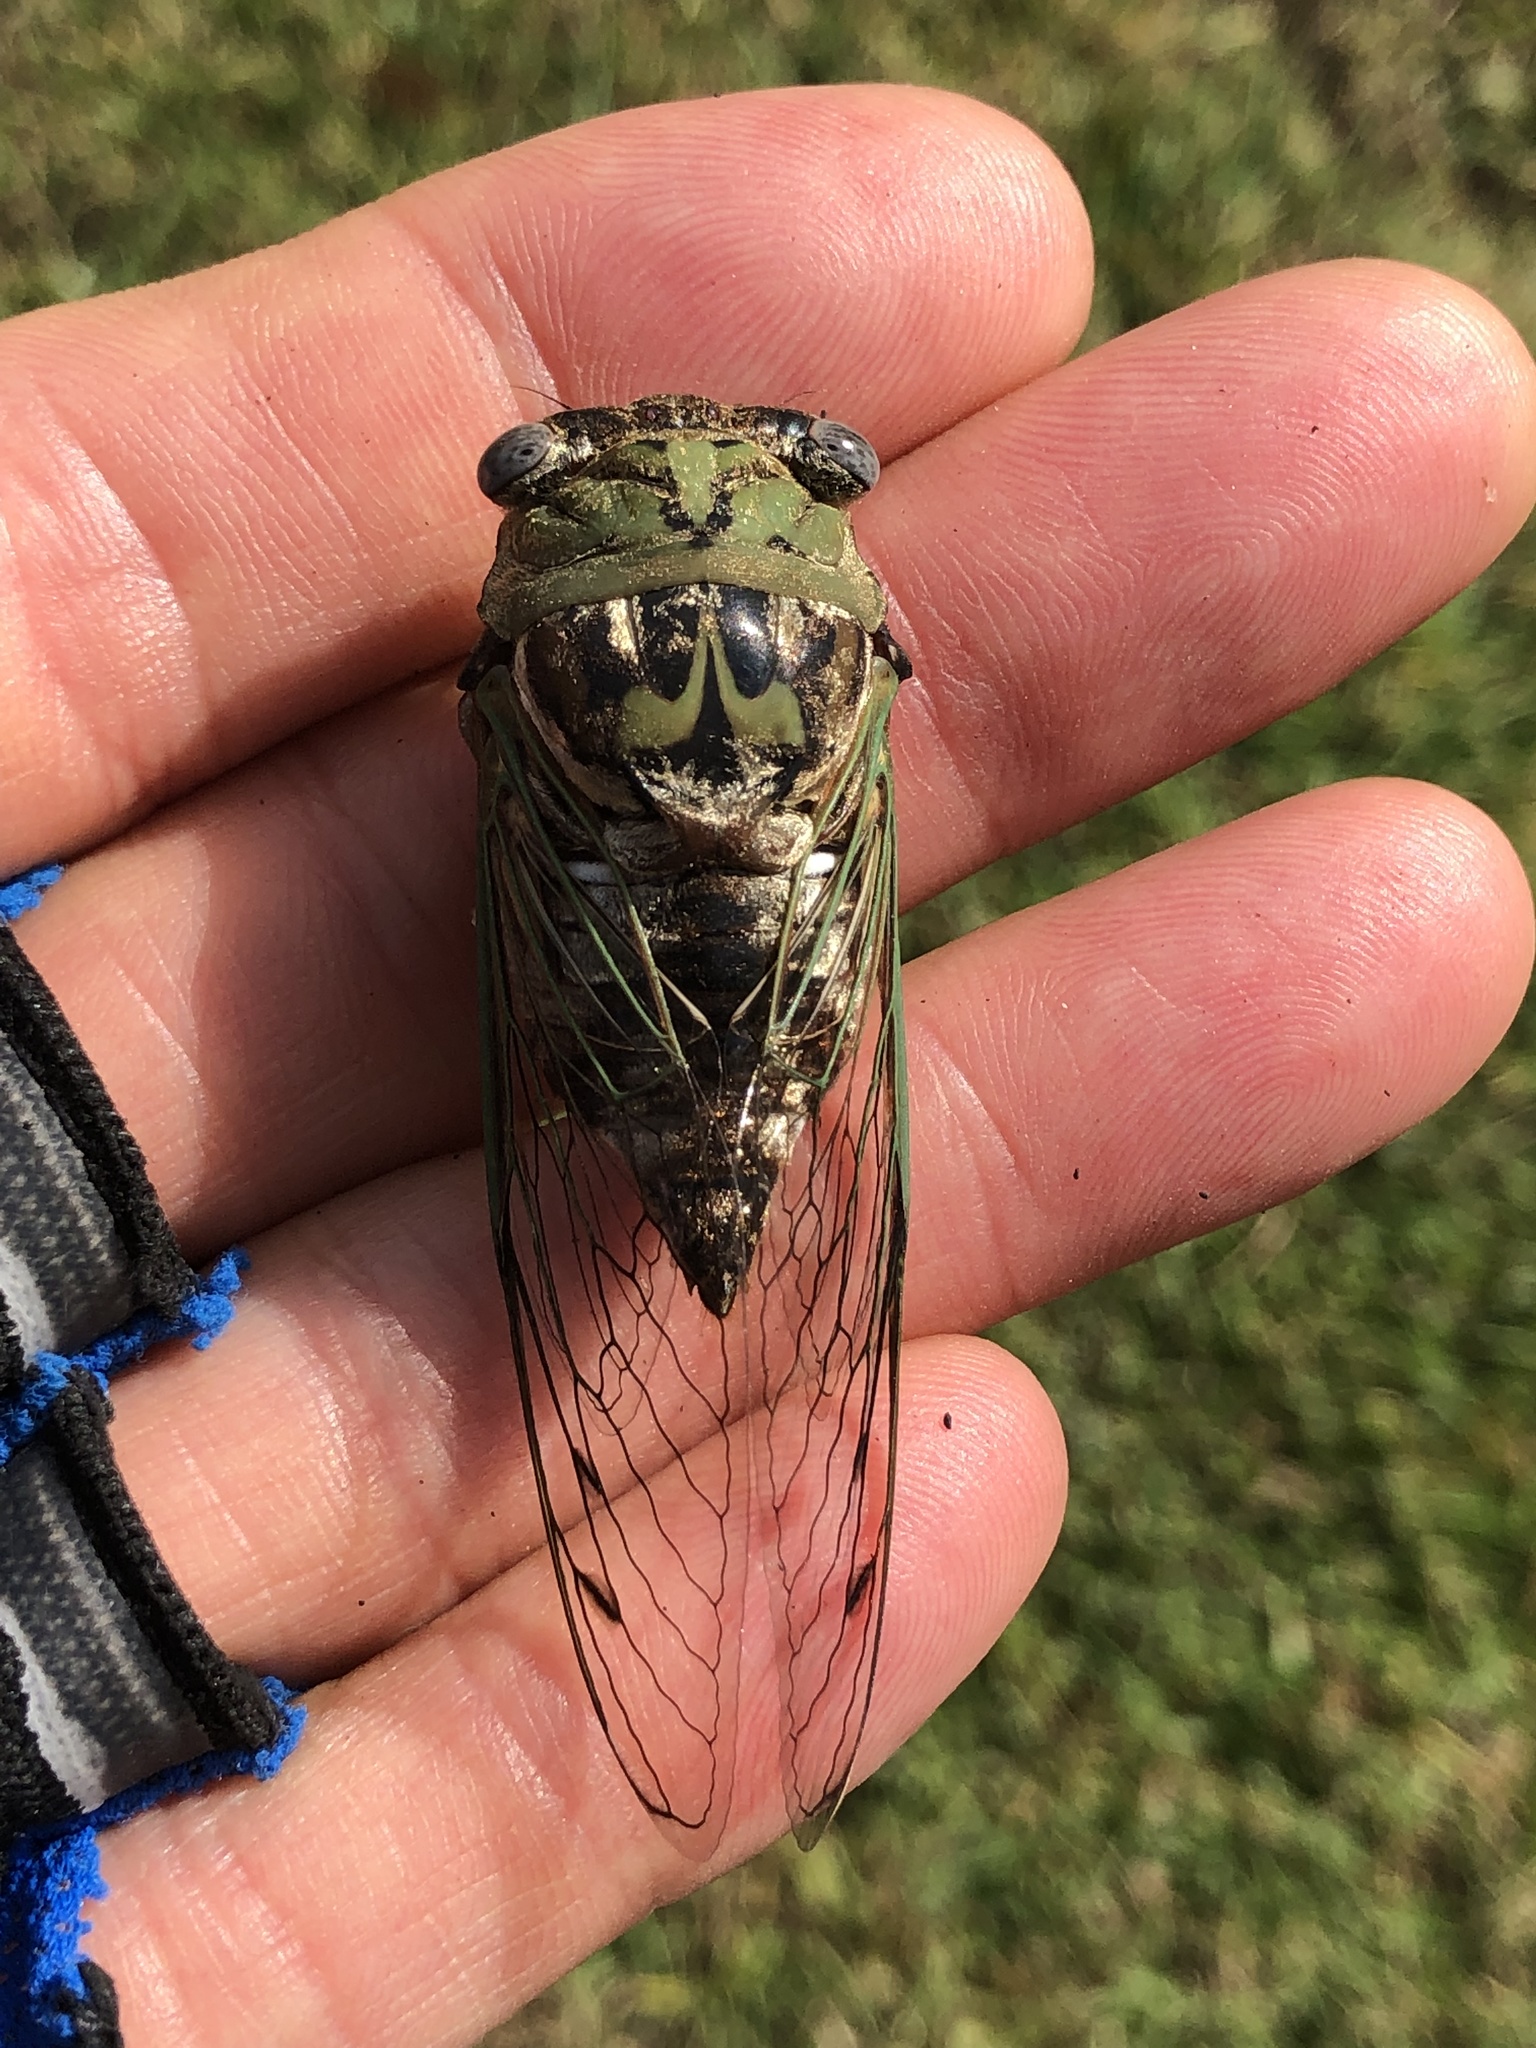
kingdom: Animalia
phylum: Arthropoda
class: Insecta
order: Hemiptera
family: Cicadidae
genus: Megatibicen
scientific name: Megatibicen resh
